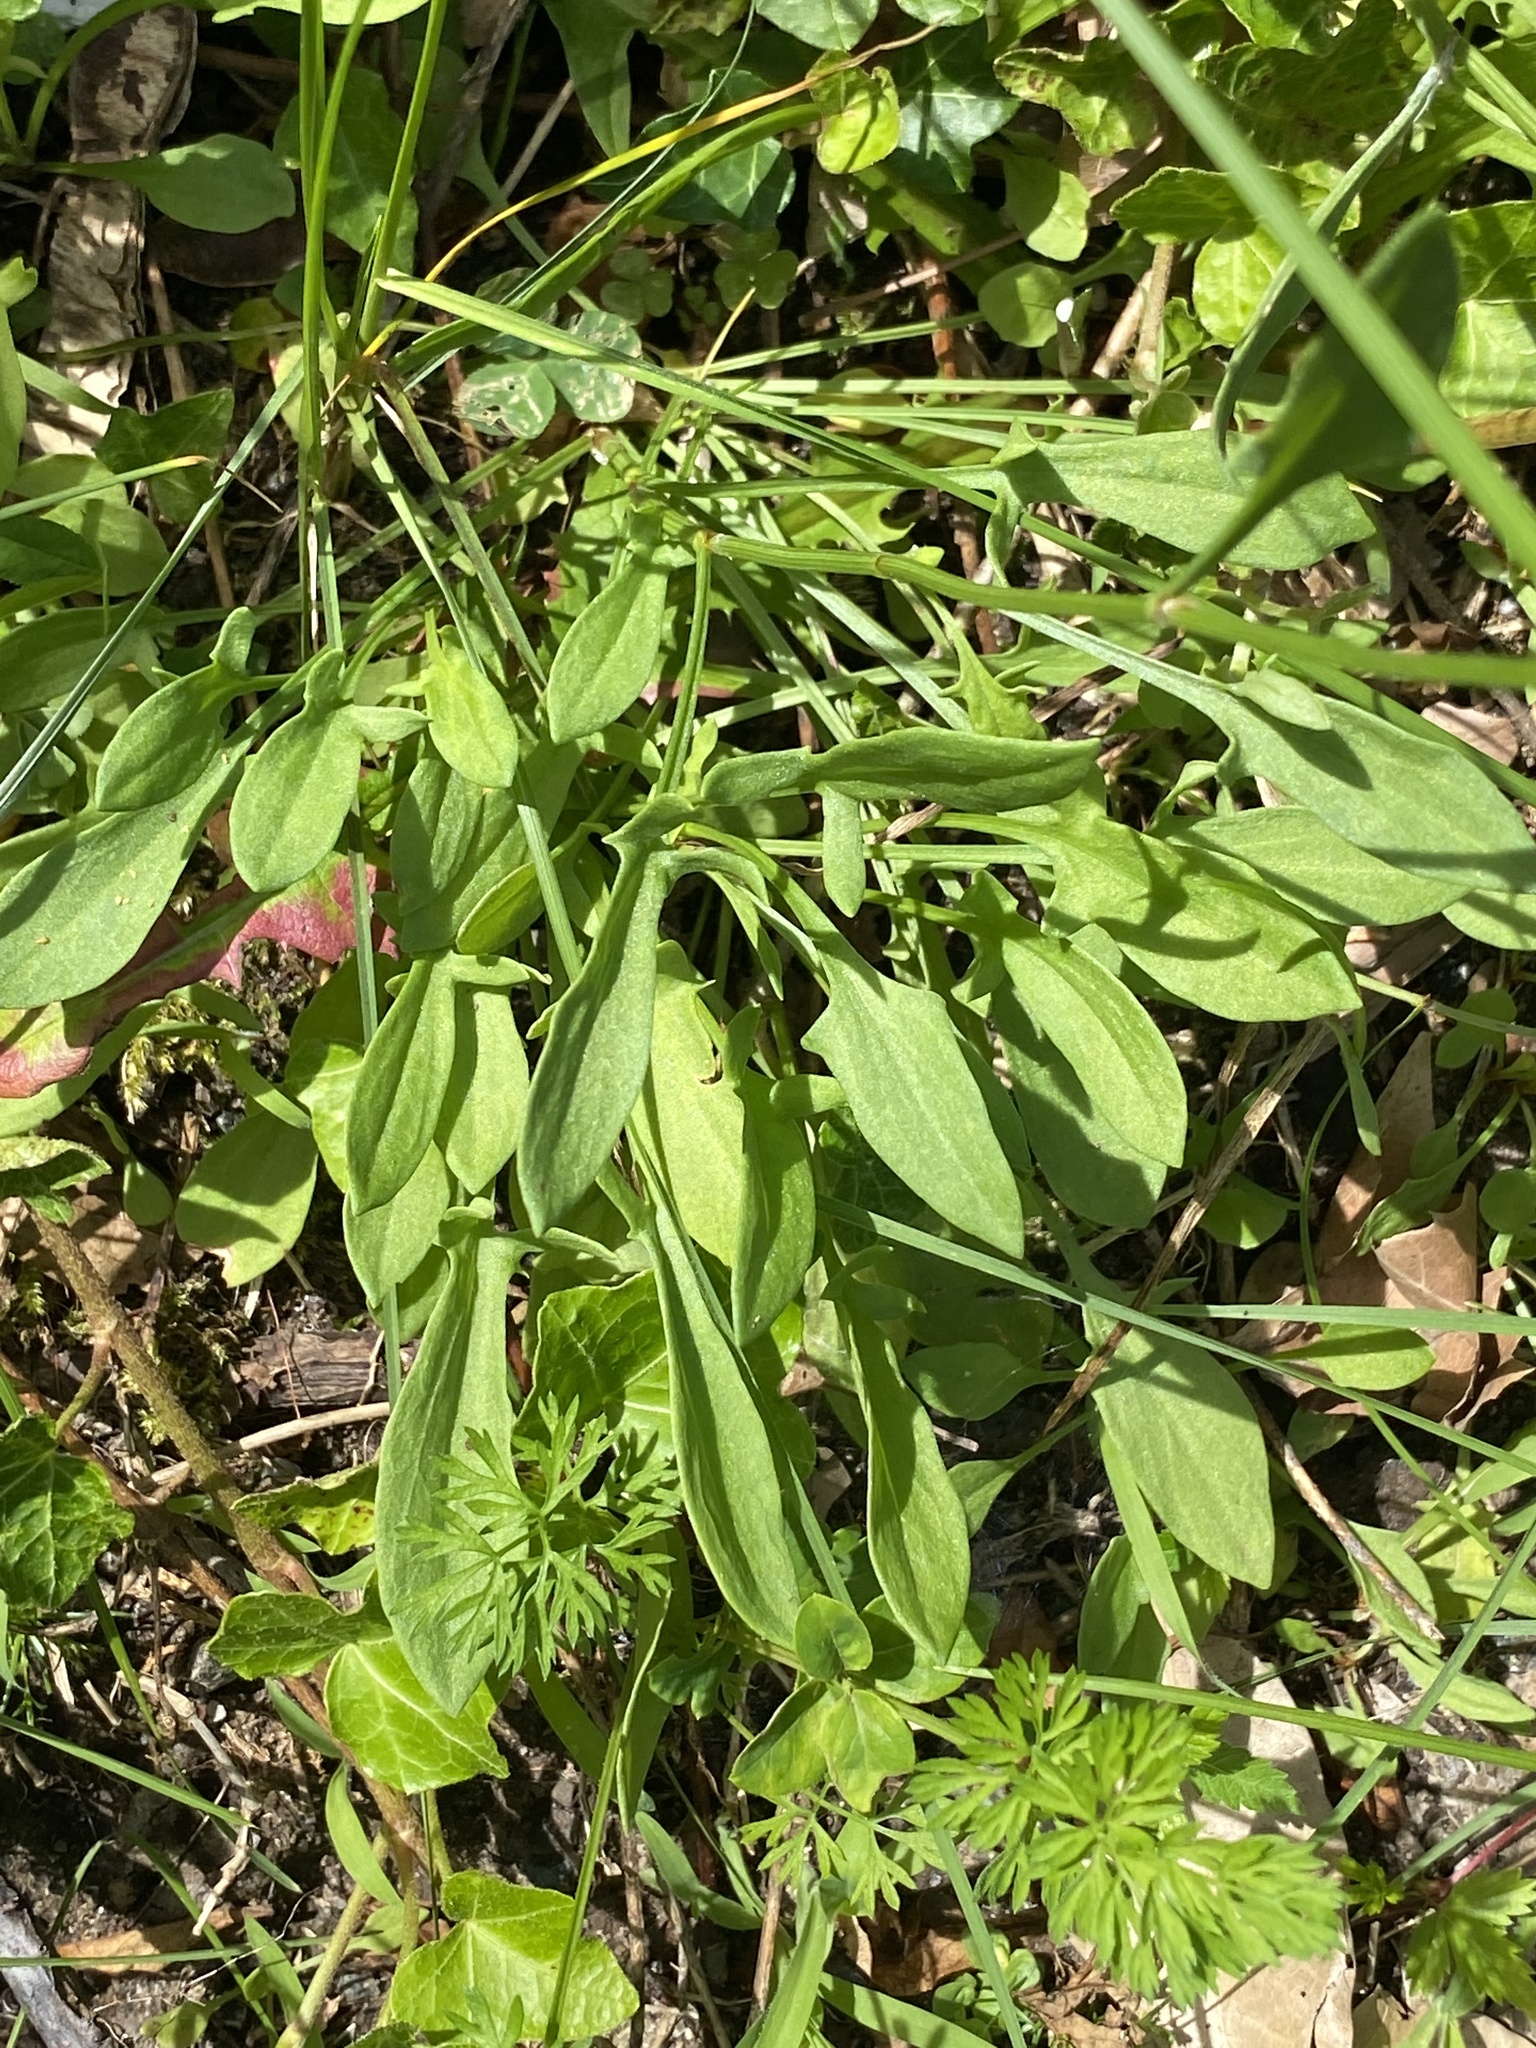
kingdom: Plantae
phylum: Tracheophyta
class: Magnoliopsida
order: Caryophyllales
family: Polygonaceae
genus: Rumex
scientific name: Rumex acetosella
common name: Common sheep sorrel
